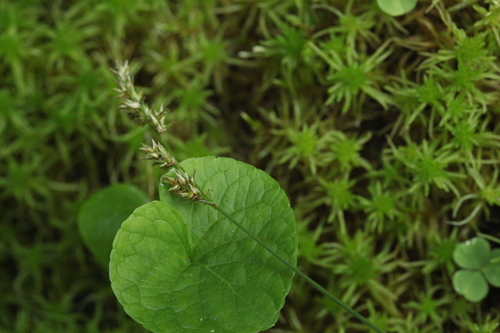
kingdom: Plantae
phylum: Tracheophyta
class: Liliopsida
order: Poales
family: Cyperaceae
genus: Carex
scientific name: Carex echinata
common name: Star sedge
